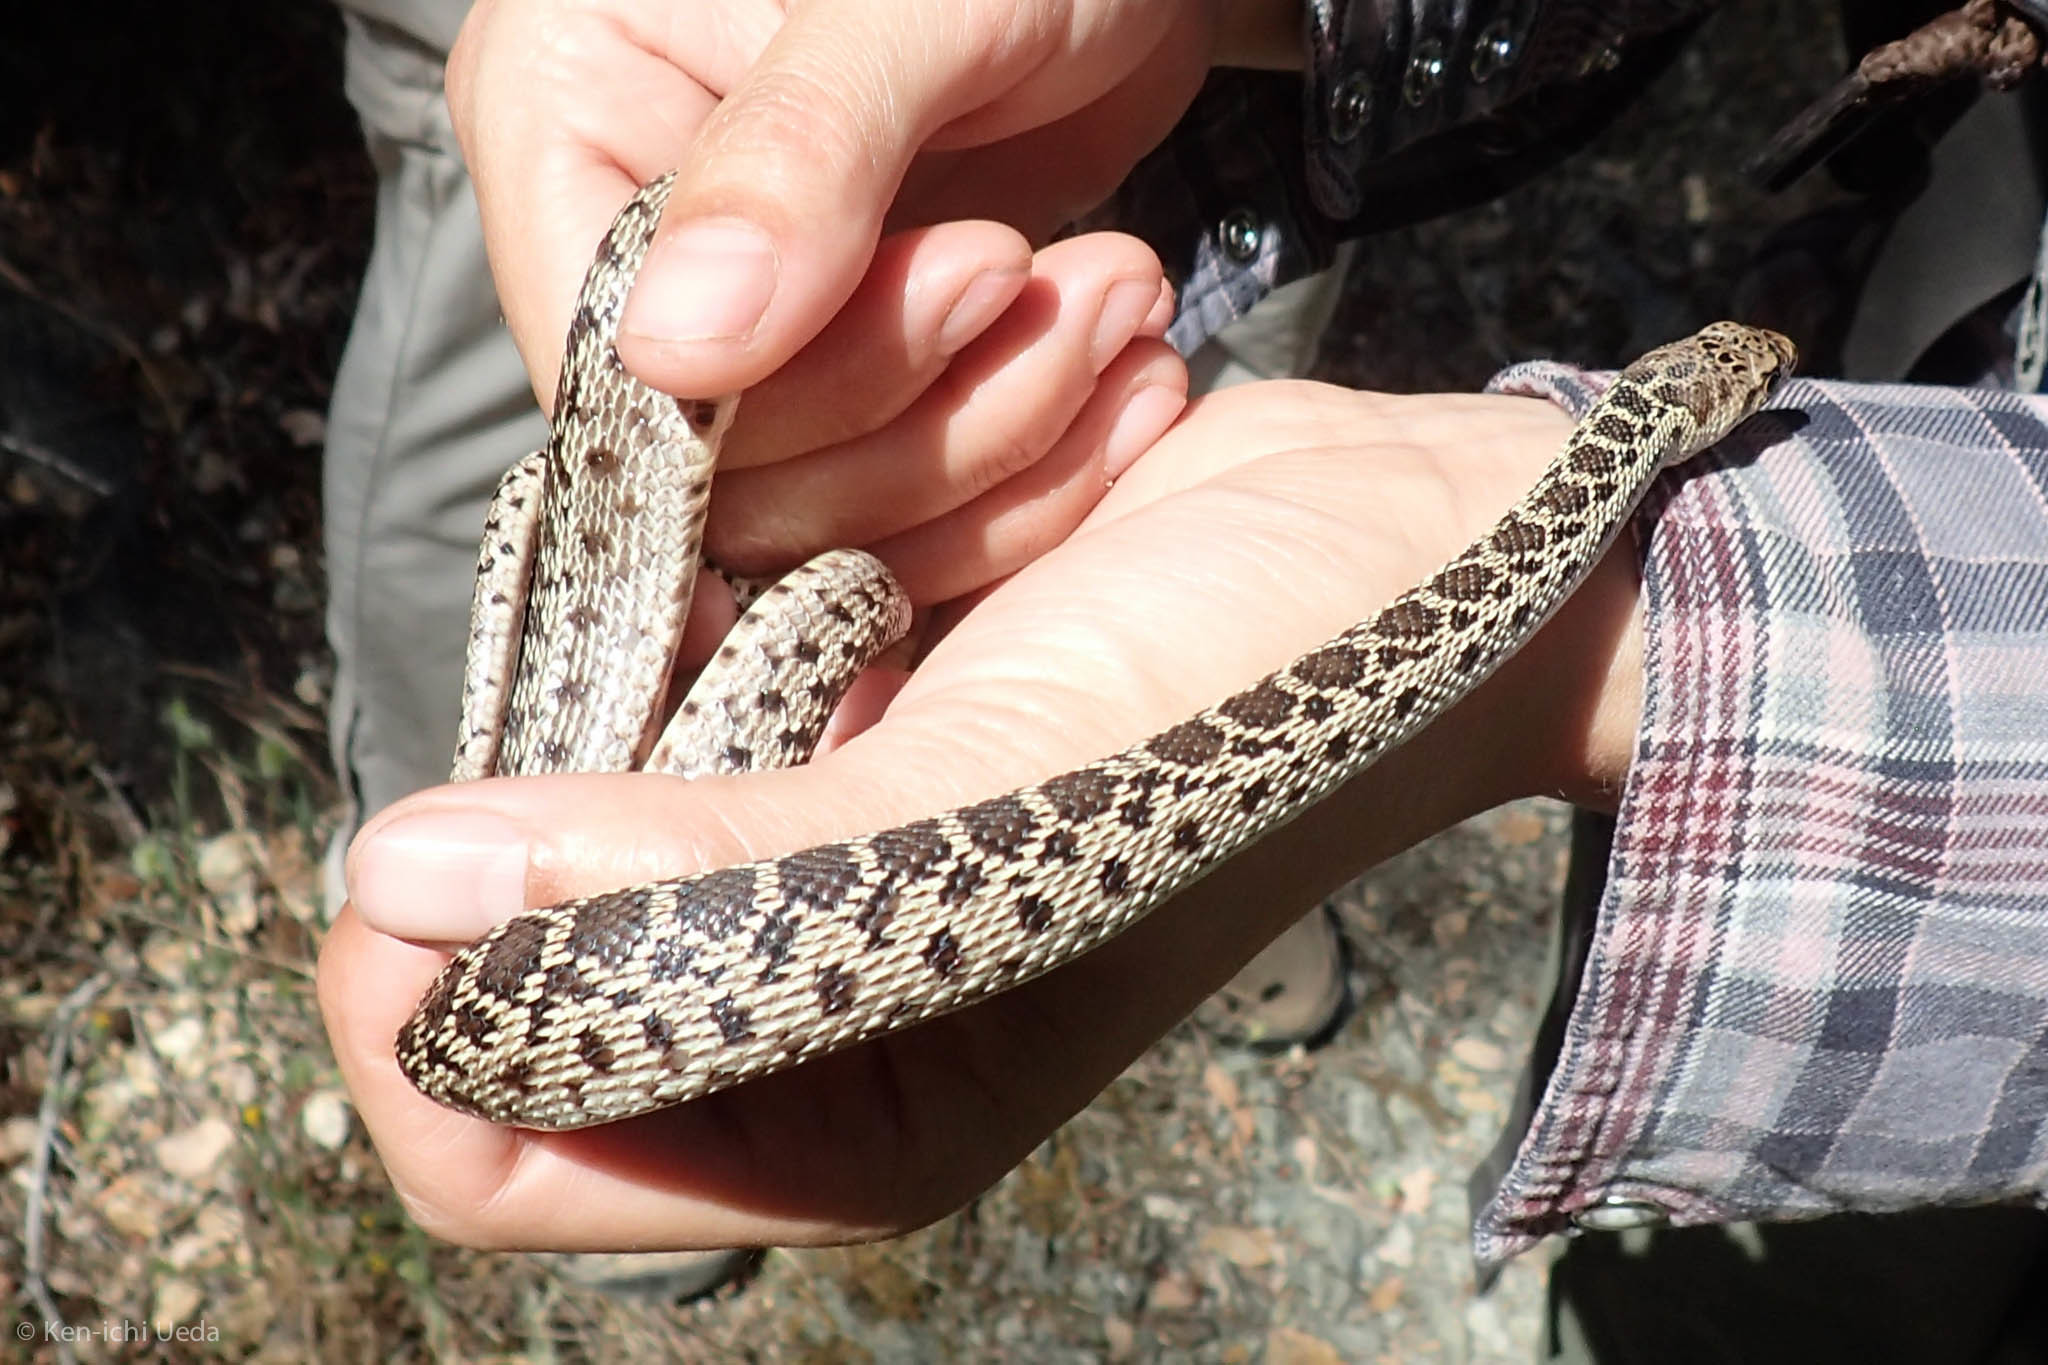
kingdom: Animalia
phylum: Chordata
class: Squamata
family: Colubridae
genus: Pituophis
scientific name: Pituophis catenifer
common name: Gopher snake
